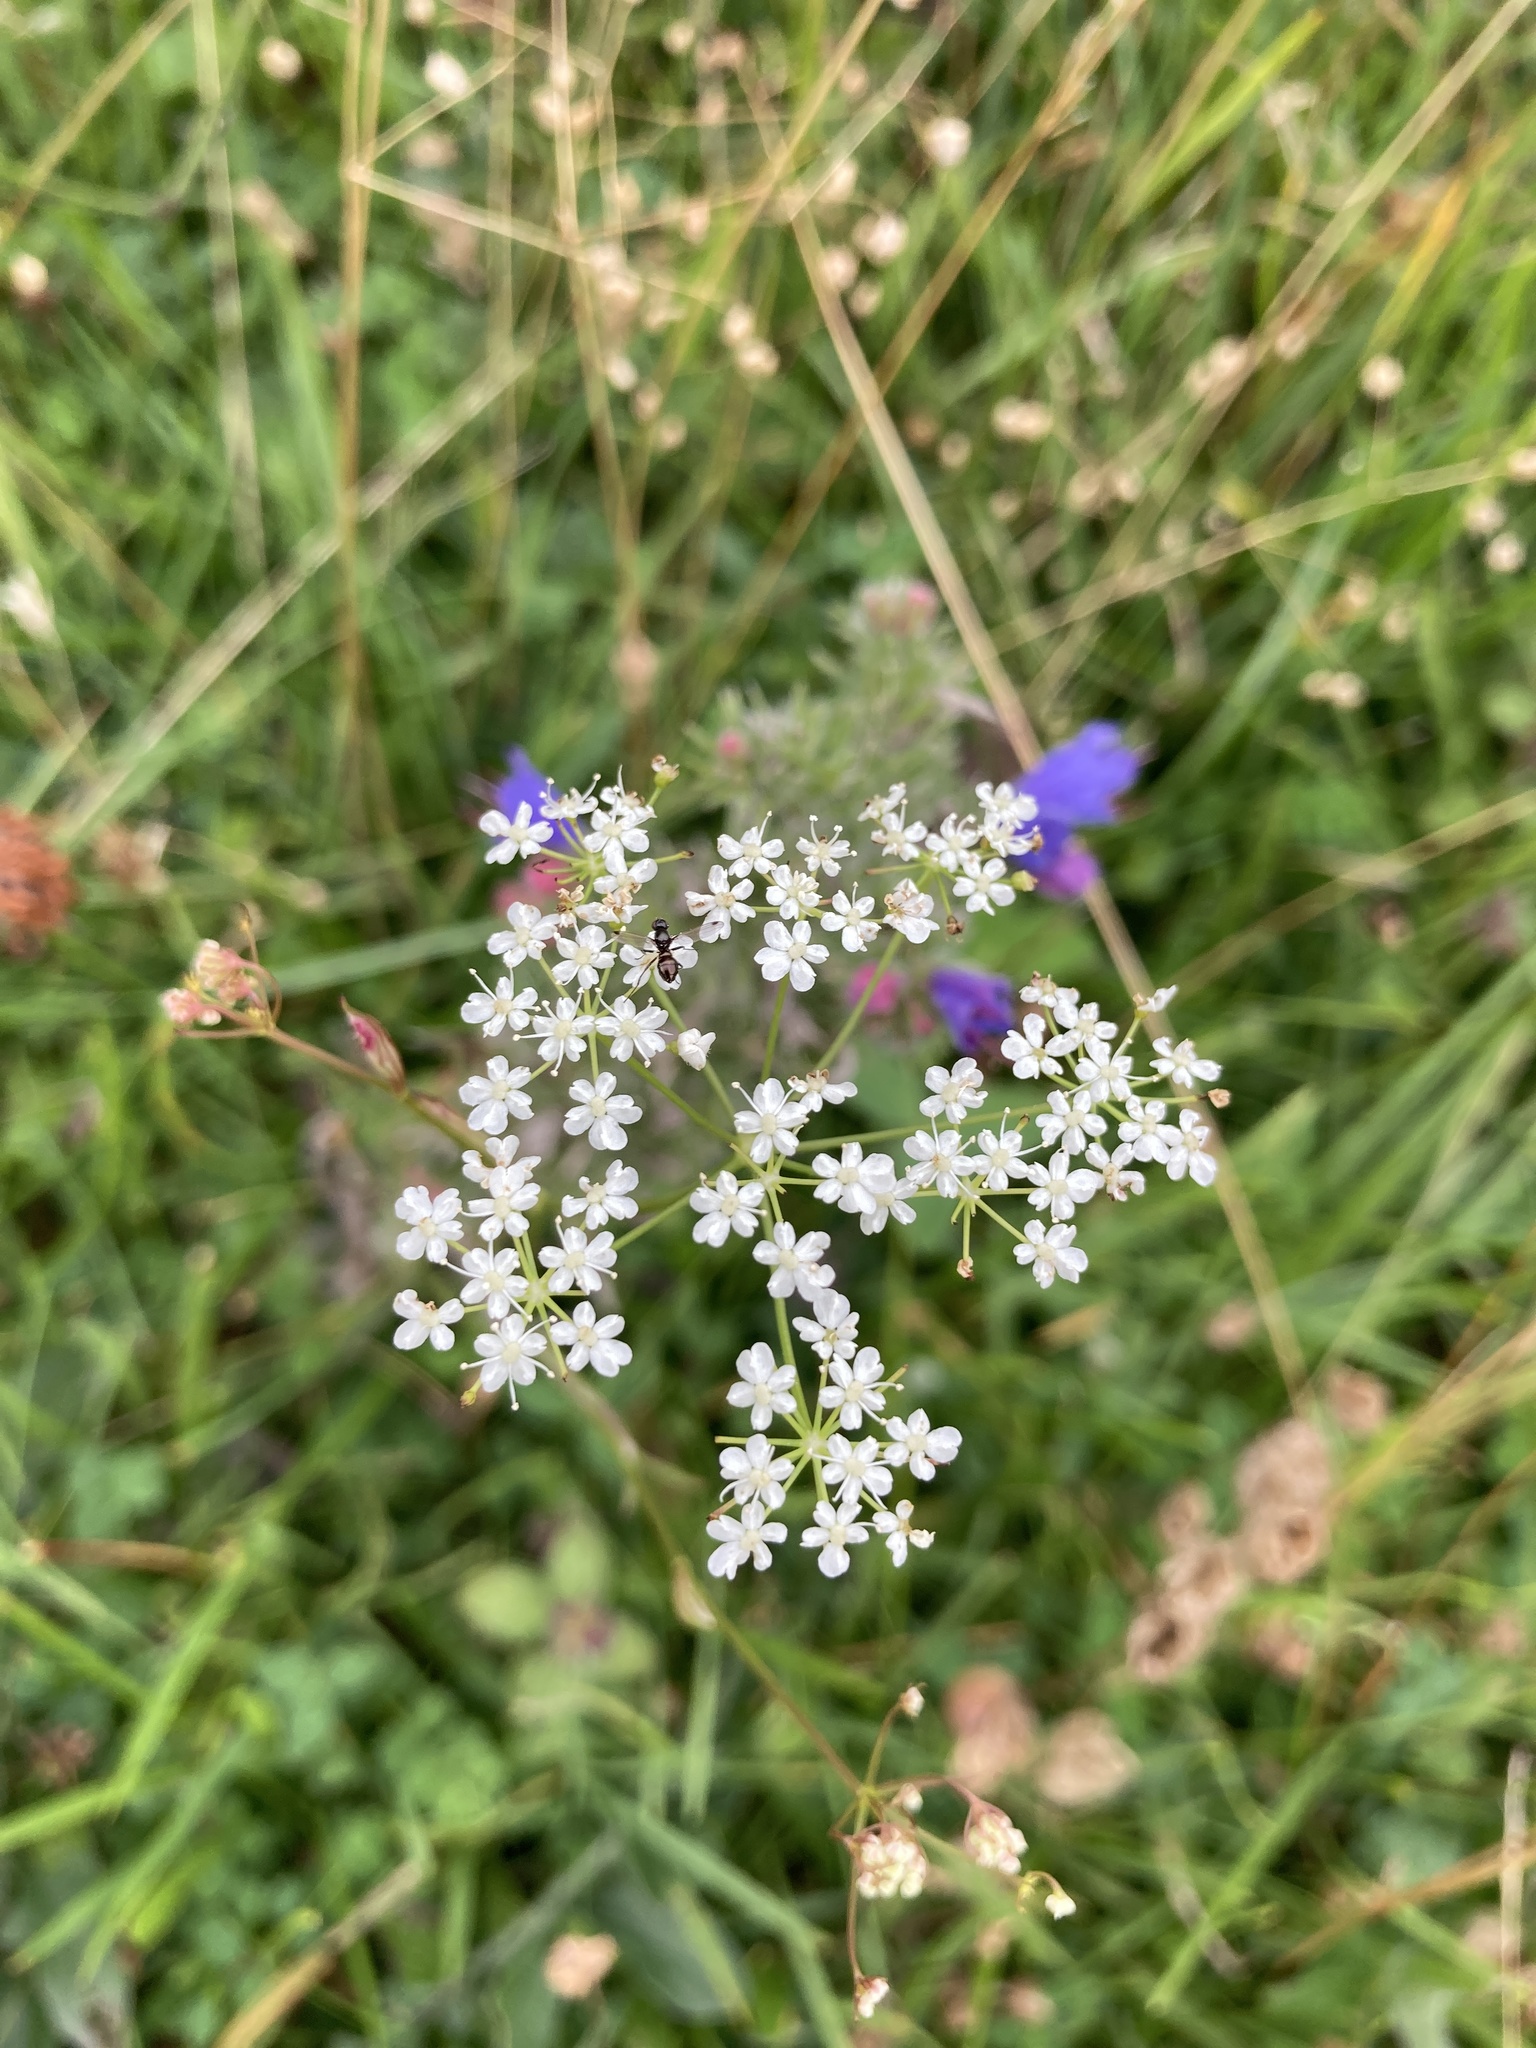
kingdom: Plantae
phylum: Tracheophyta
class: Magnoliopsida
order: Apiales
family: Apiaceae
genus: Conopodium
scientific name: Conopodium majus
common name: Pignut
